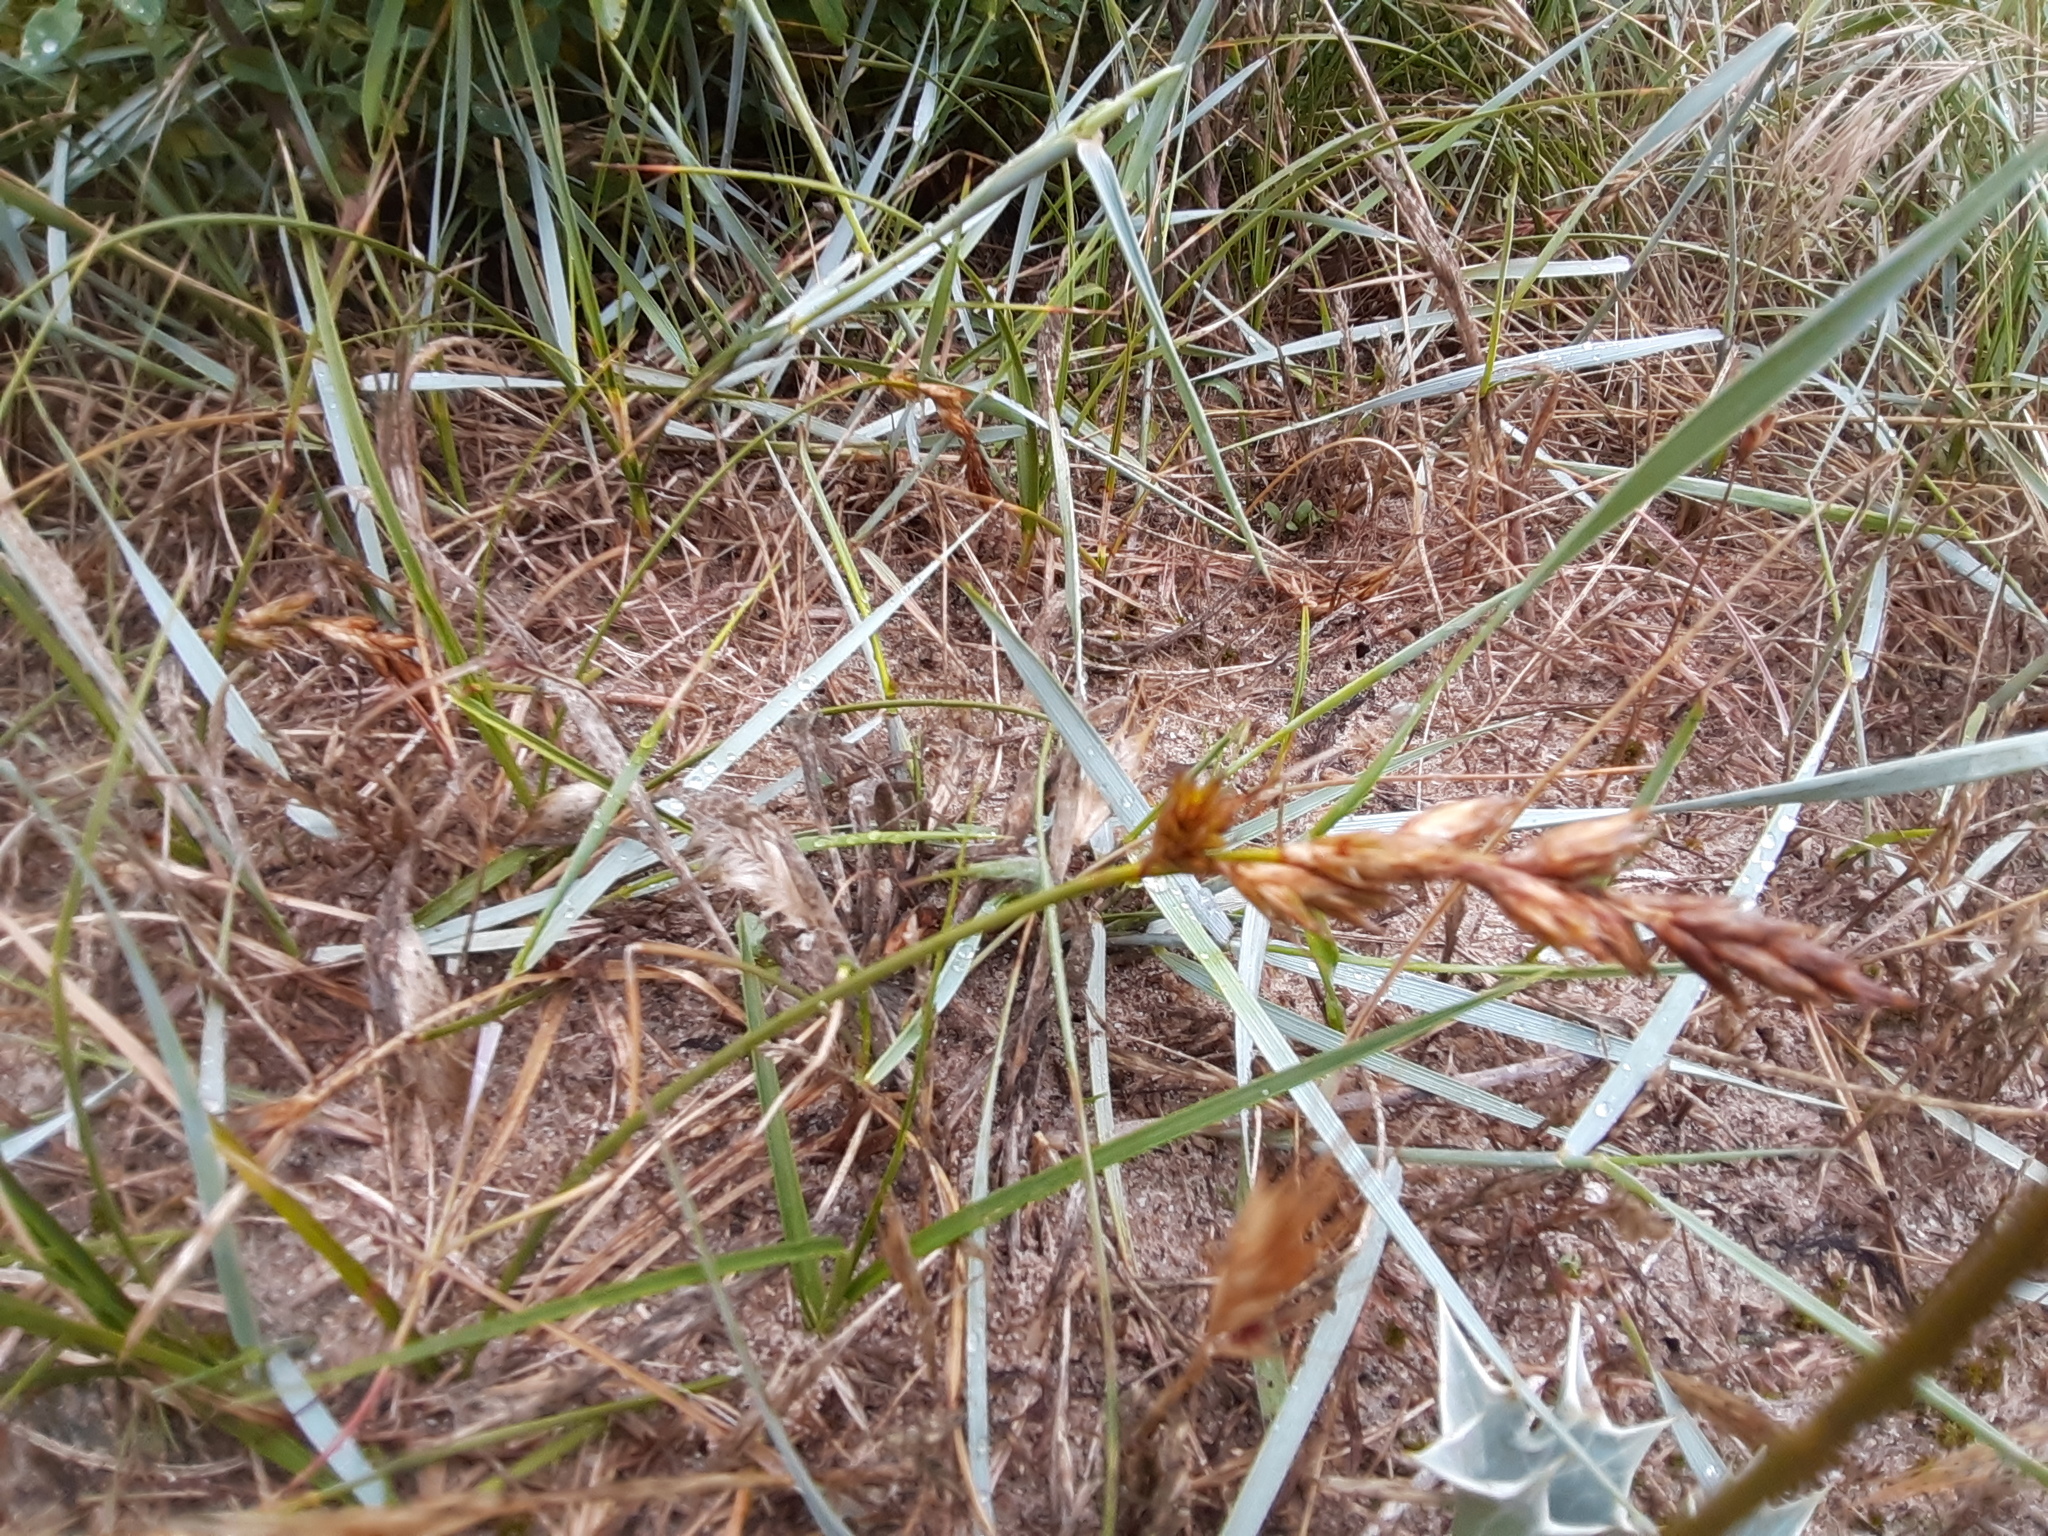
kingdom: Plantae
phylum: Tracheophyta
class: Liliopsida
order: Poales
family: Cyperaceae
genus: Carex
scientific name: Carex arenaria
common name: Sand sedge
